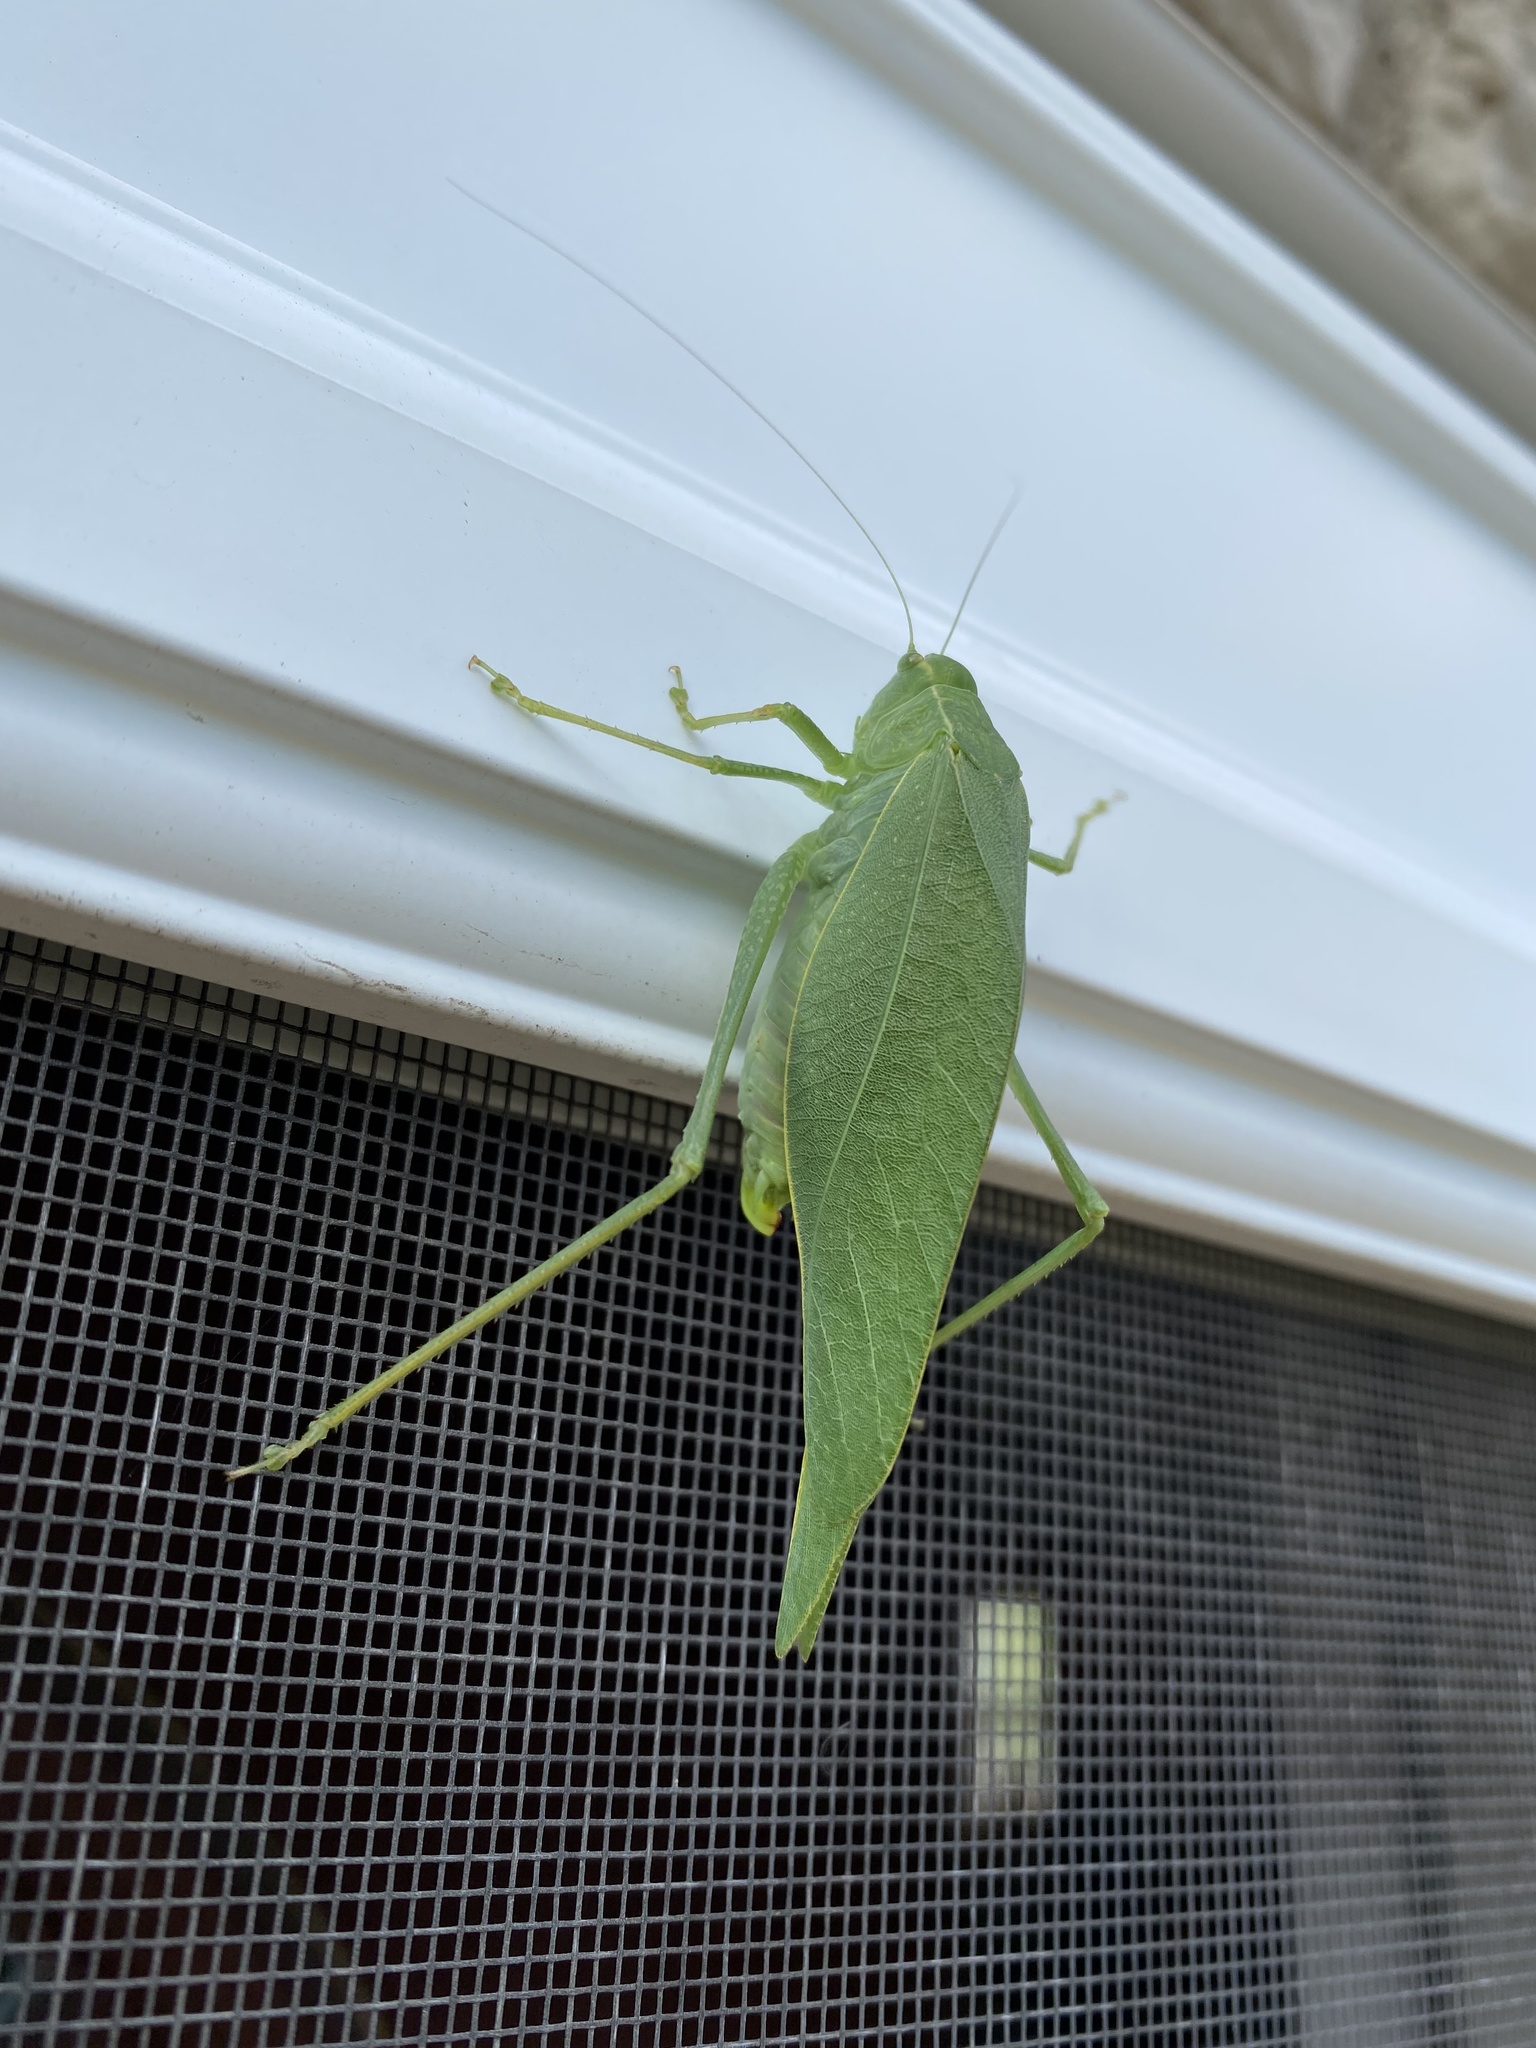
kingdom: Animalia
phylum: Arthropoda
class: Insecta
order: Orthoptera
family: Tettigoniidae
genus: Microcentrum
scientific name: Microcentrum rhombifolium
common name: Broad-winged katydid
